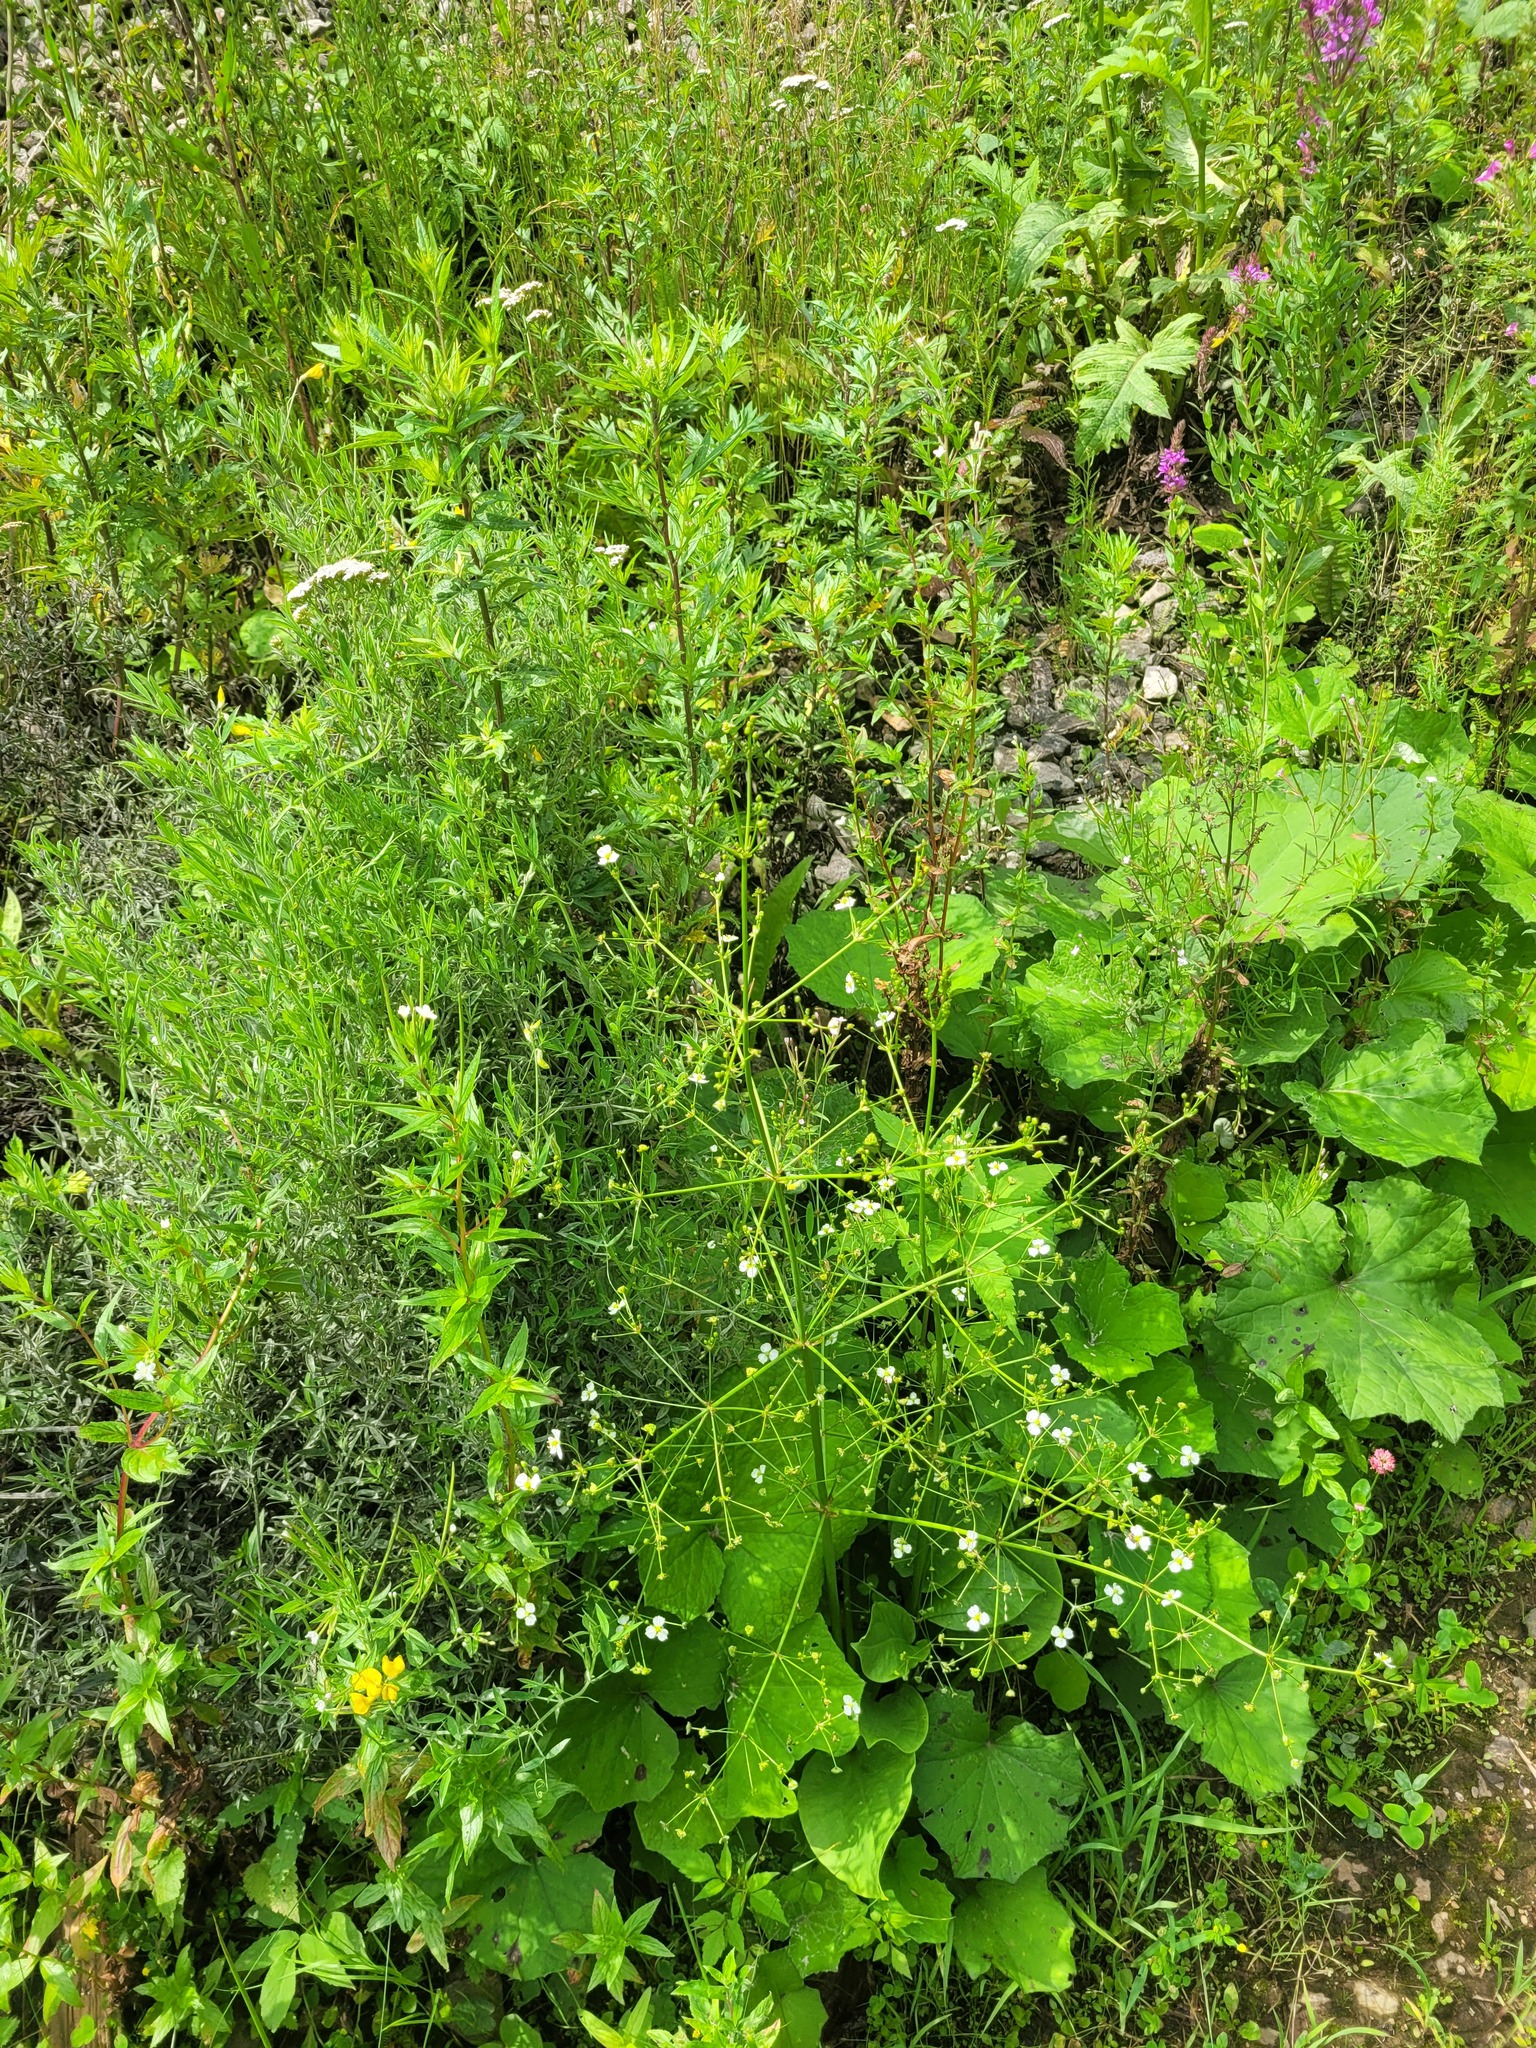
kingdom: Plantae
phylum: Tracheophyta
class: Liliopsida
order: Alismatales
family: Alismataceae
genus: Alisma
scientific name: Alisma plantago-aquatica
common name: Water-plantain
